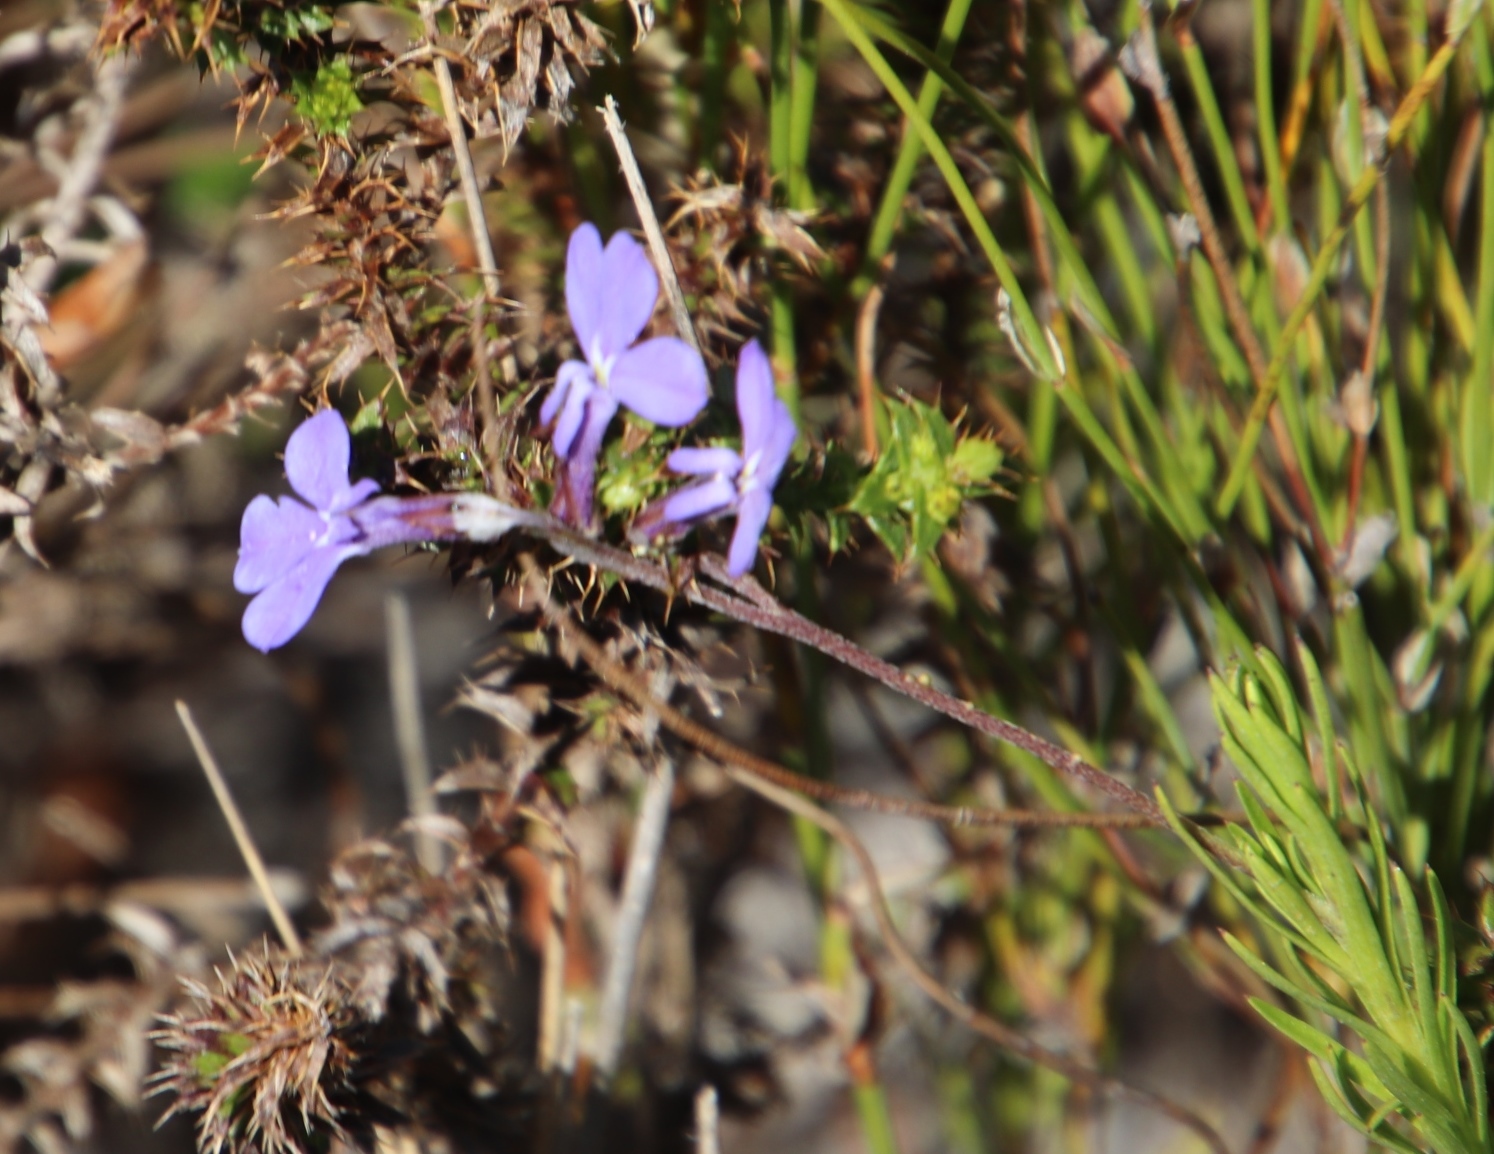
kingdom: Plantae
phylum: Tracheophyta
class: Magnoliopsida
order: Asterales
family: Campanulaceae
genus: Lobelia
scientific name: Lobelia pinifolia
